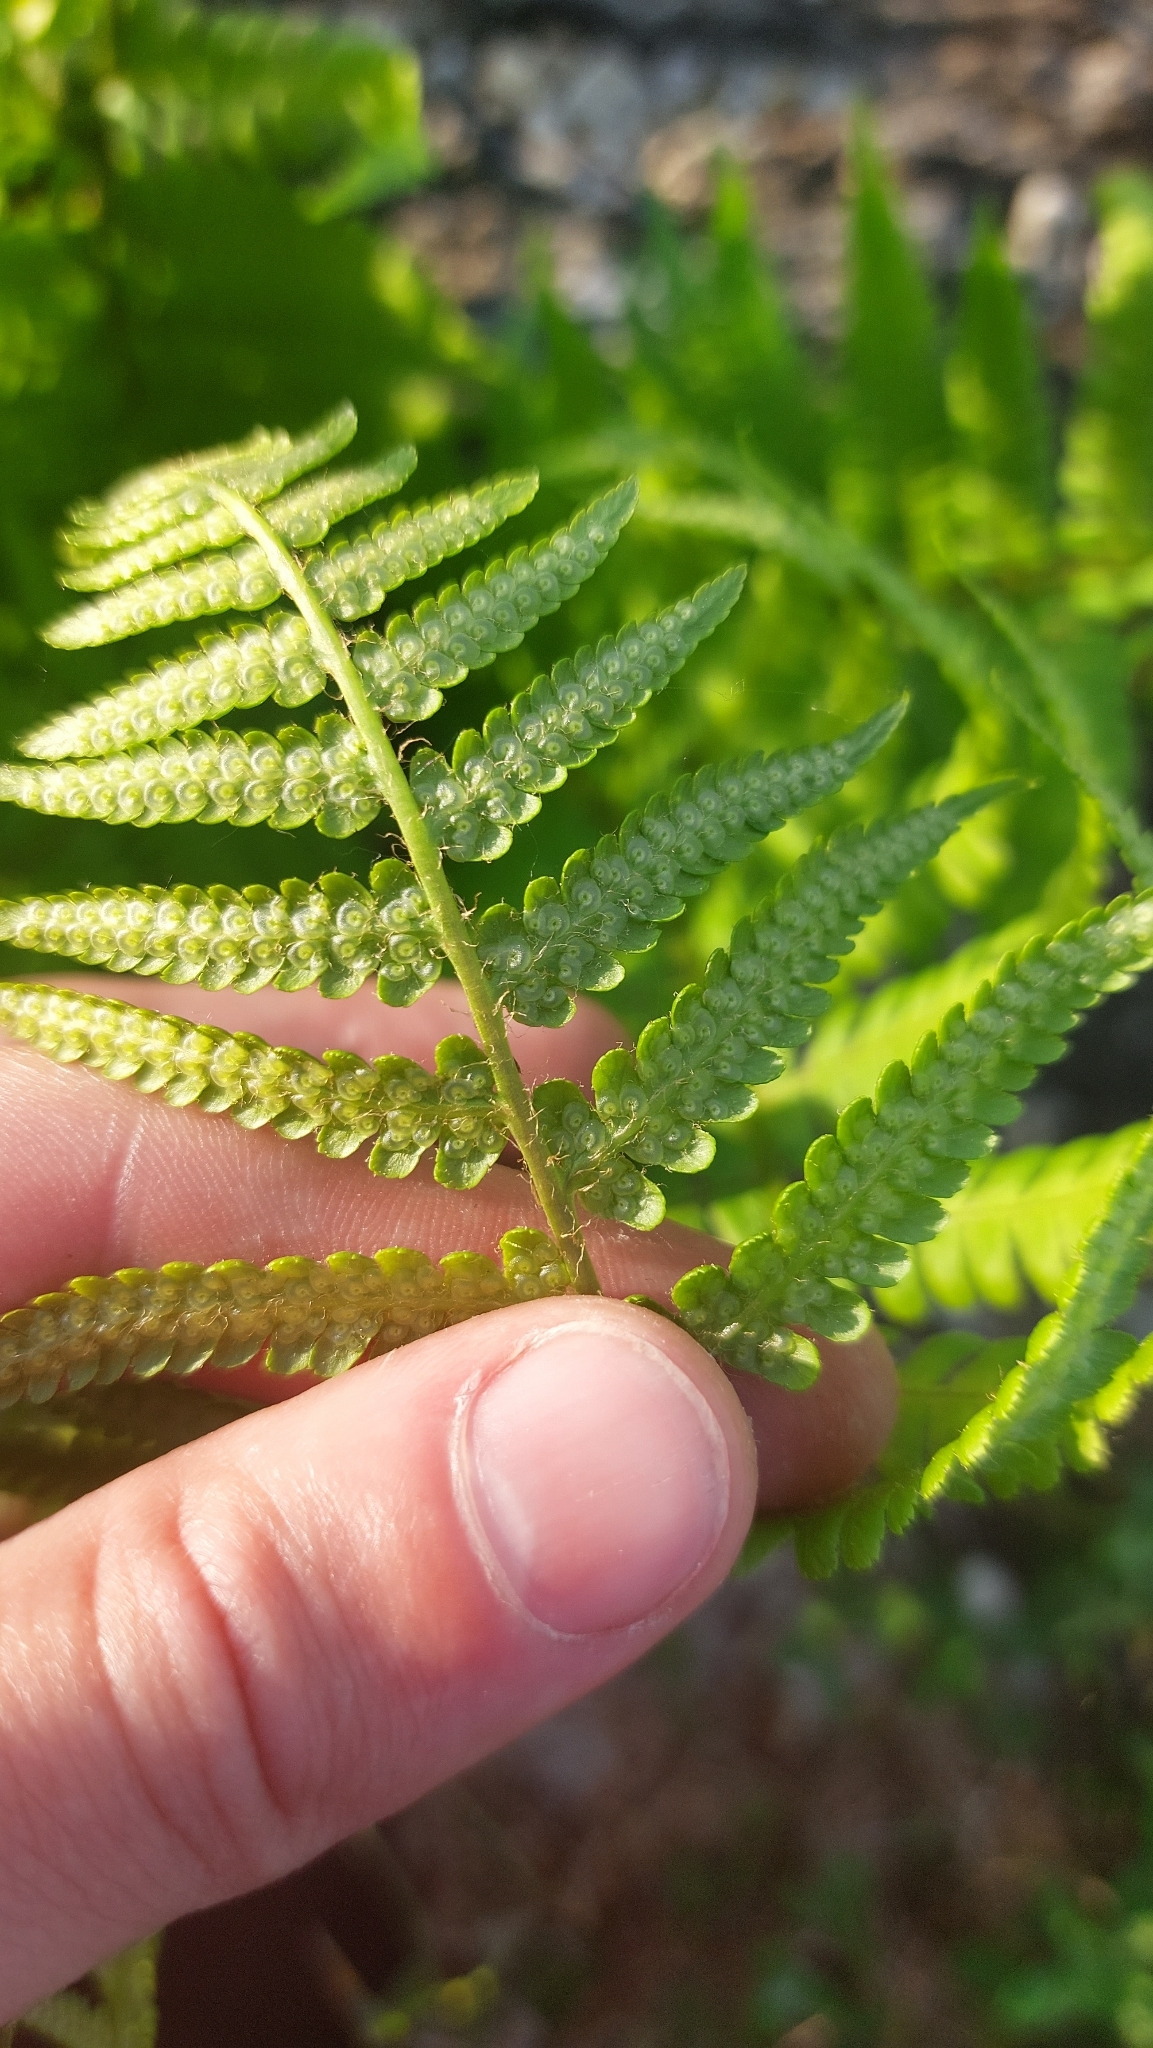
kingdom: Plantae
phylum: Tracheophyta
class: Polypodiopsida
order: Polypodiales
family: Dryopteridaceae
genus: Dryopteris
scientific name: Dryopteris filix-mas
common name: Male fern
